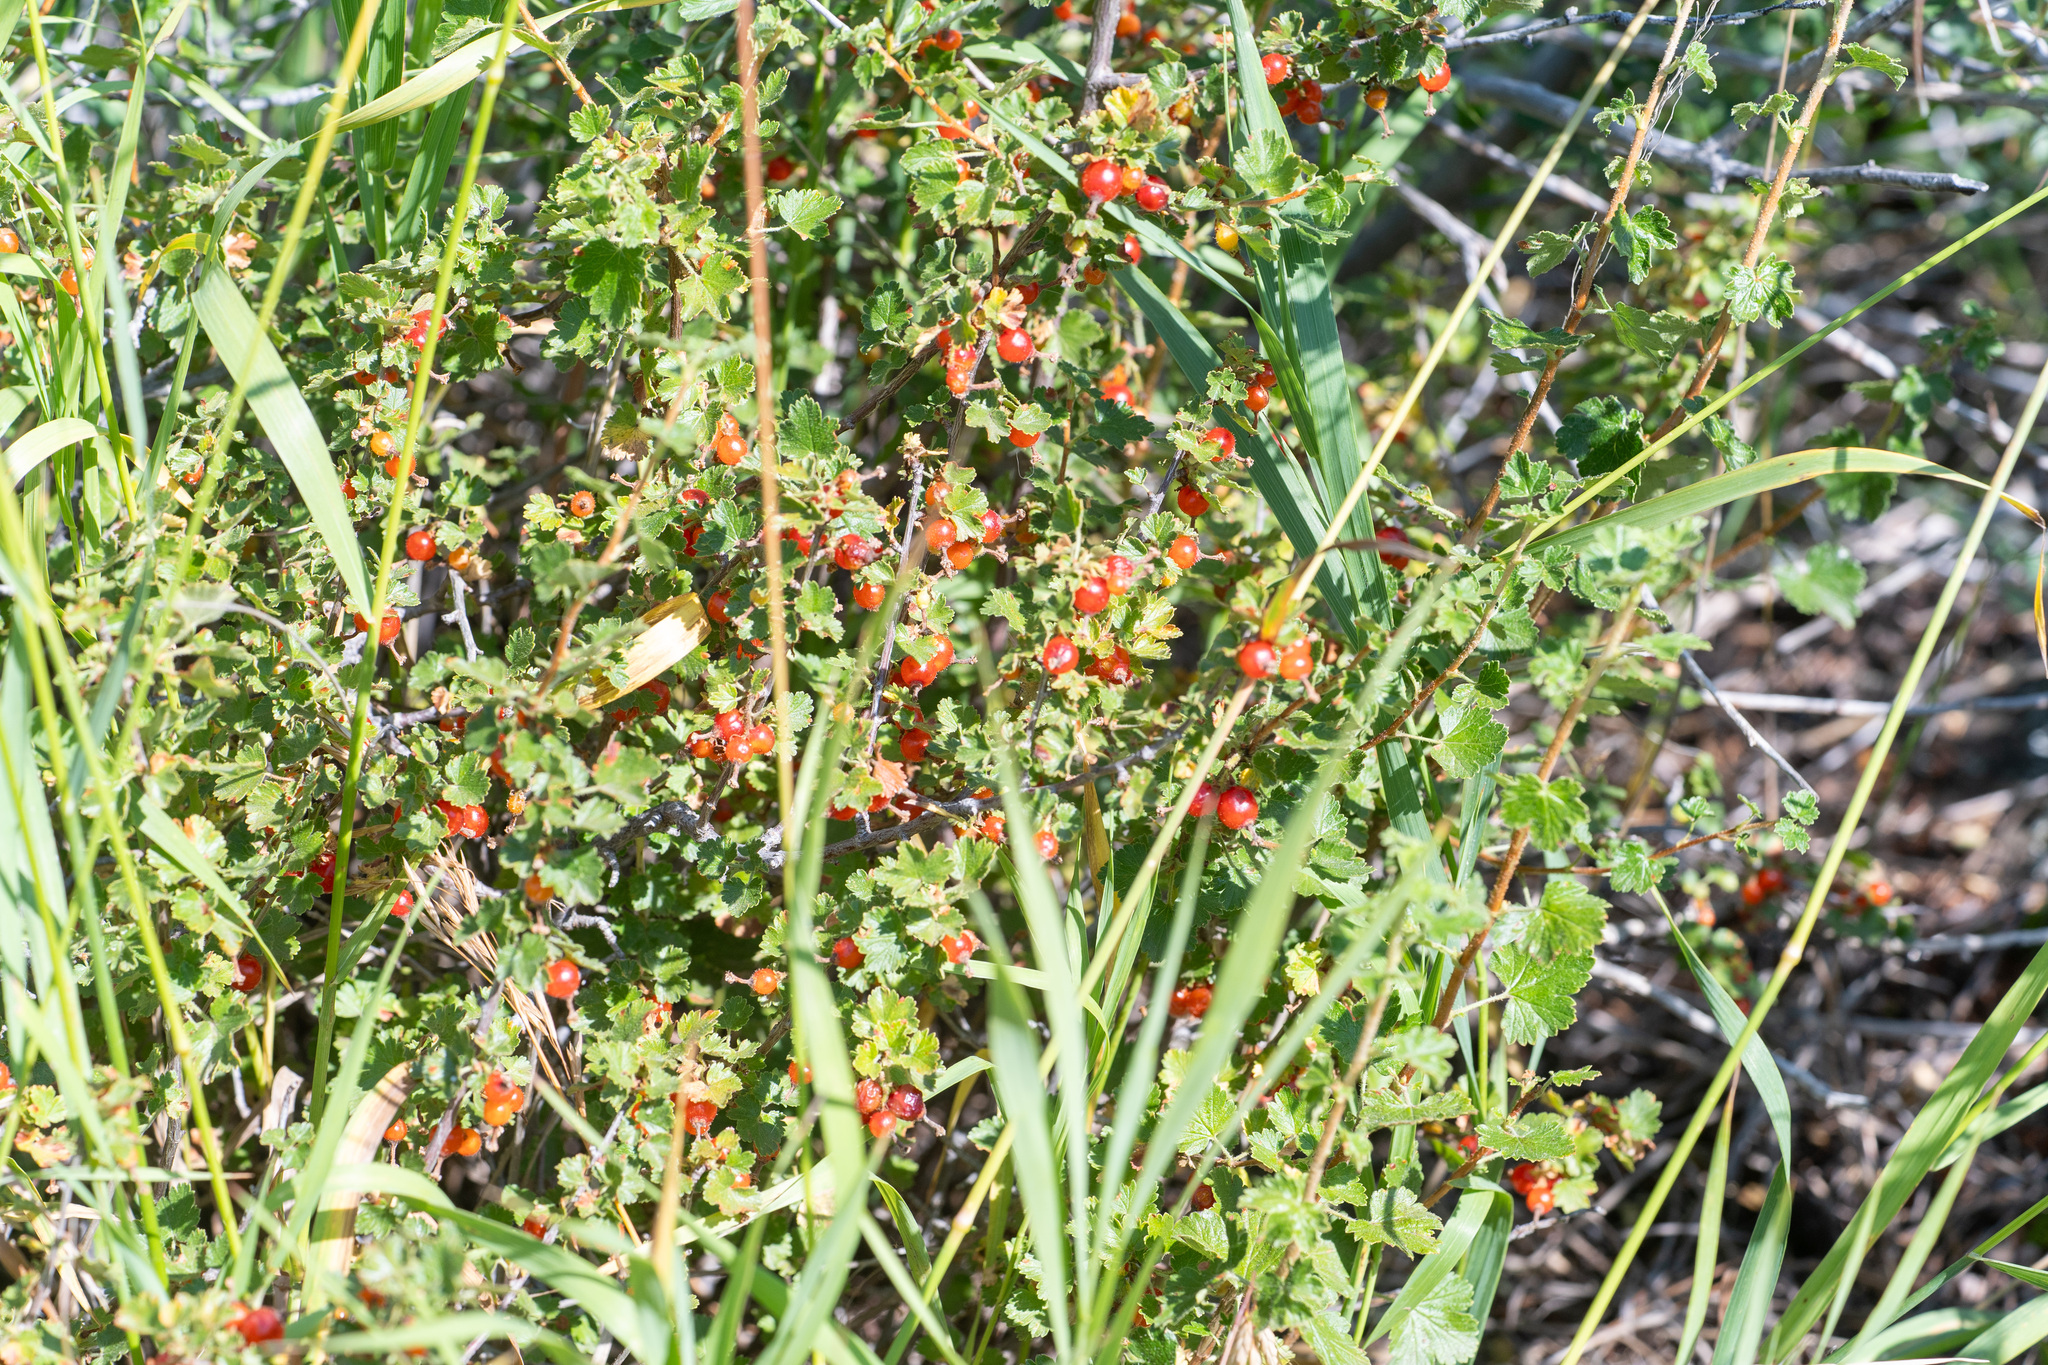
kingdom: Plantae
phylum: Tracheophyta
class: Magnoliopsida
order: Saxifragales
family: Grossulariaceae
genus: Ribes
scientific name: Ribes cereum
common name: Wax currant
